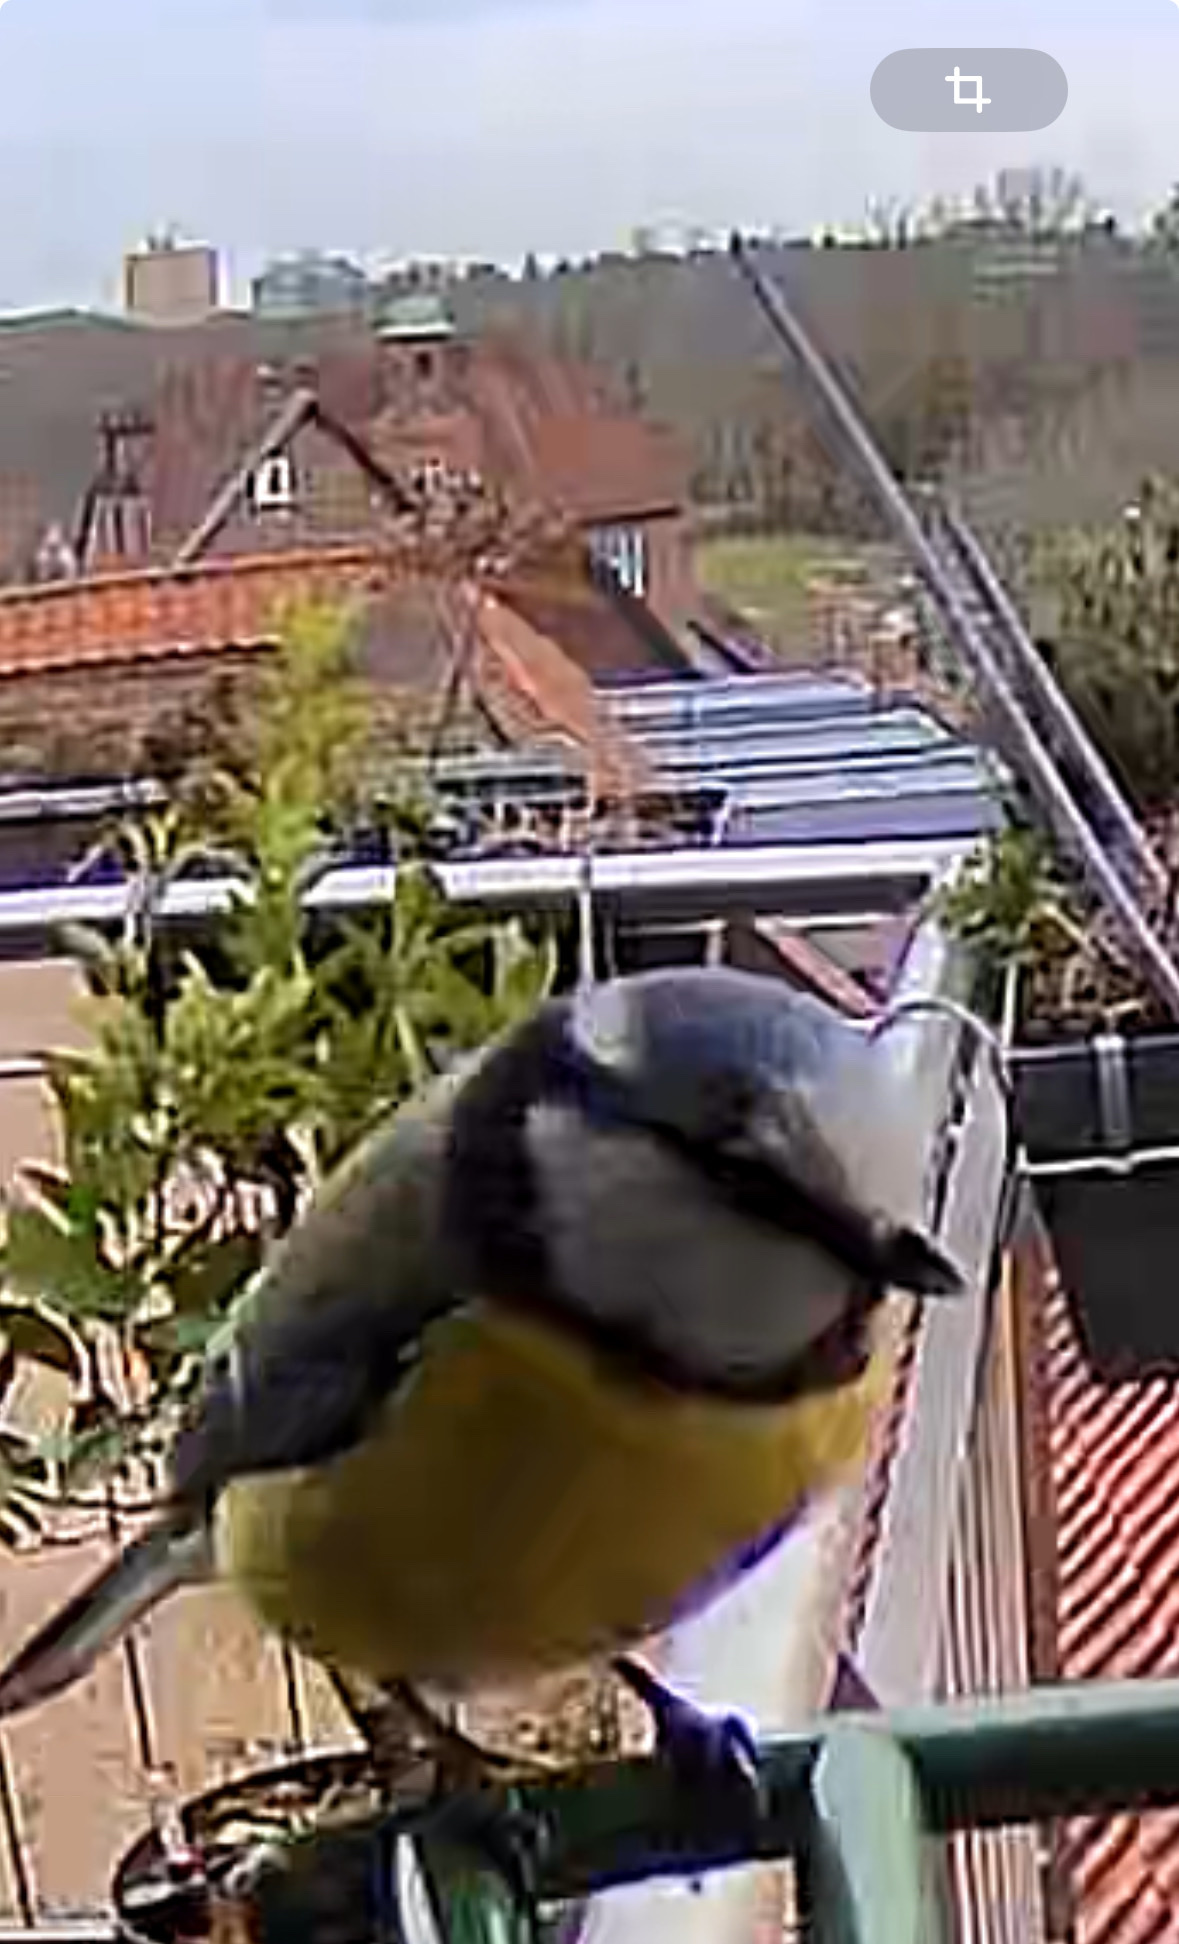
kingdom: Animalia
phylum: Chordata
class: Aves
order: Passeriformes
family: Paridae
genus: Cyanistes
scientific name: Cyanistes caeruleus
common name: Eurasian blue tit
